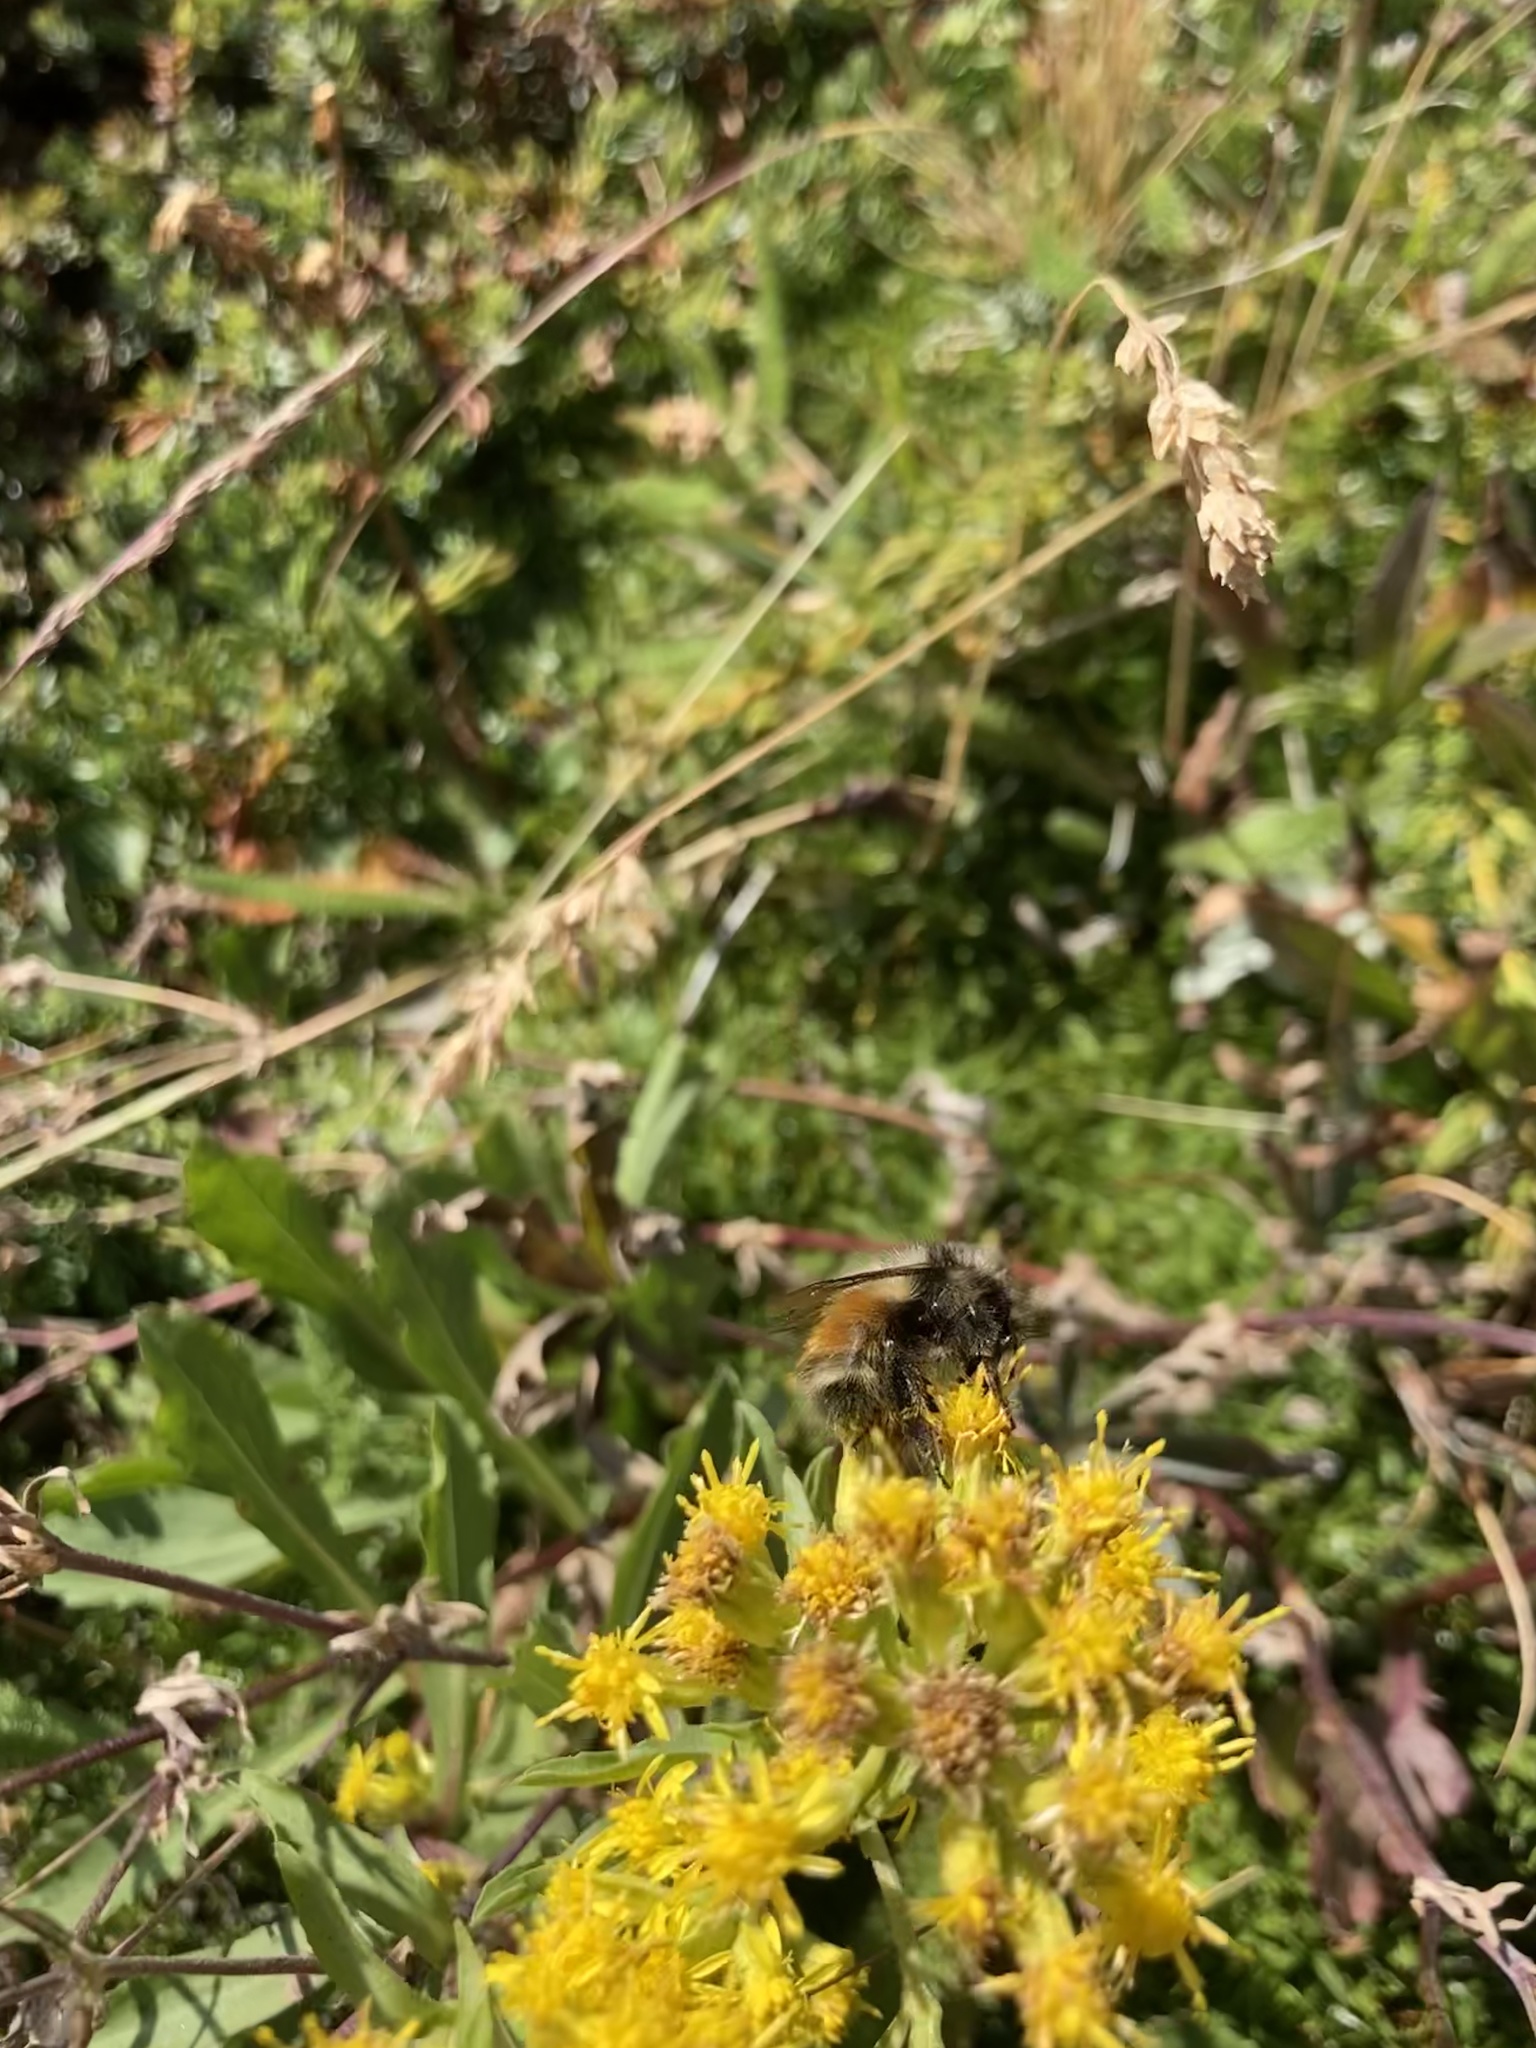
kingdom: Animalia
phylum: Arthropoda
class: Insecta
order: Hymenoptera
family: Apidae
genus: Bombus
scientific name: Bombus melanopygus
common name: Black tail bumble bee
